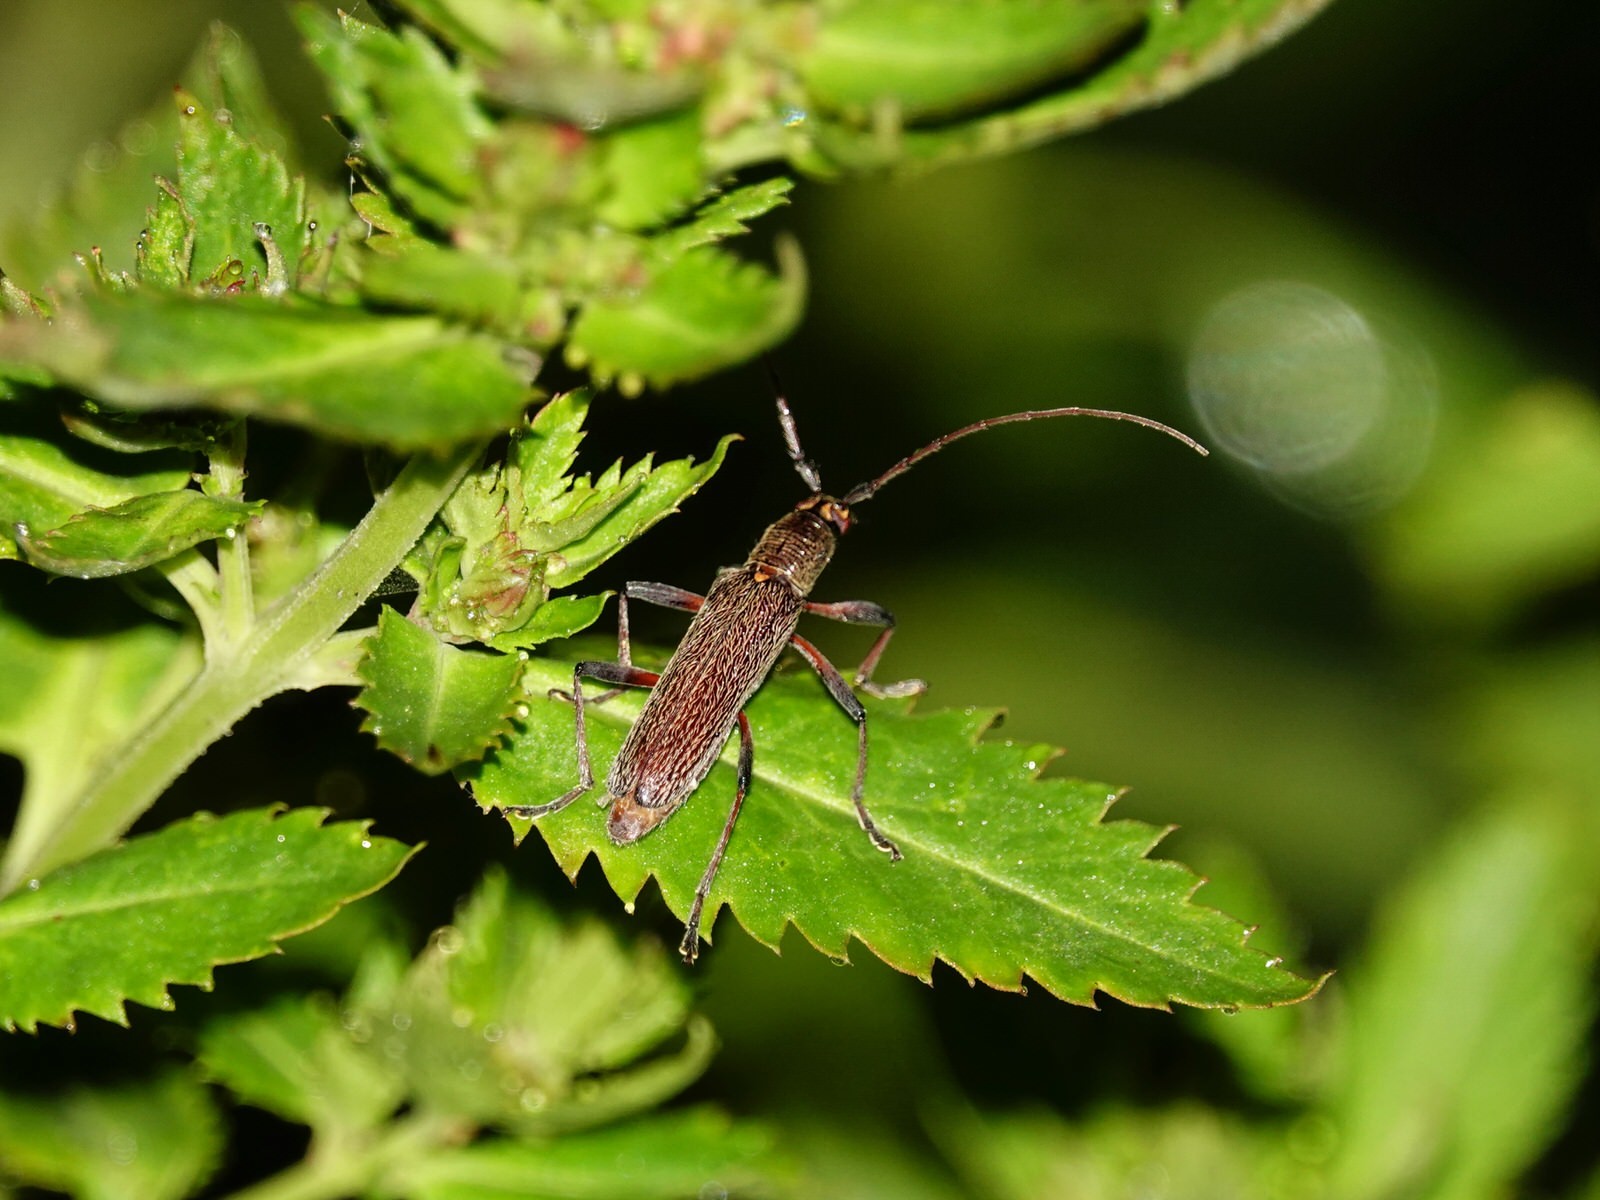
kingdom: Animalia
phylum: Arthropoda
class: Insecta
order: Coleoptera
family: Cerambycidae
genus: Oemona
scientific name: Oemona hirta
